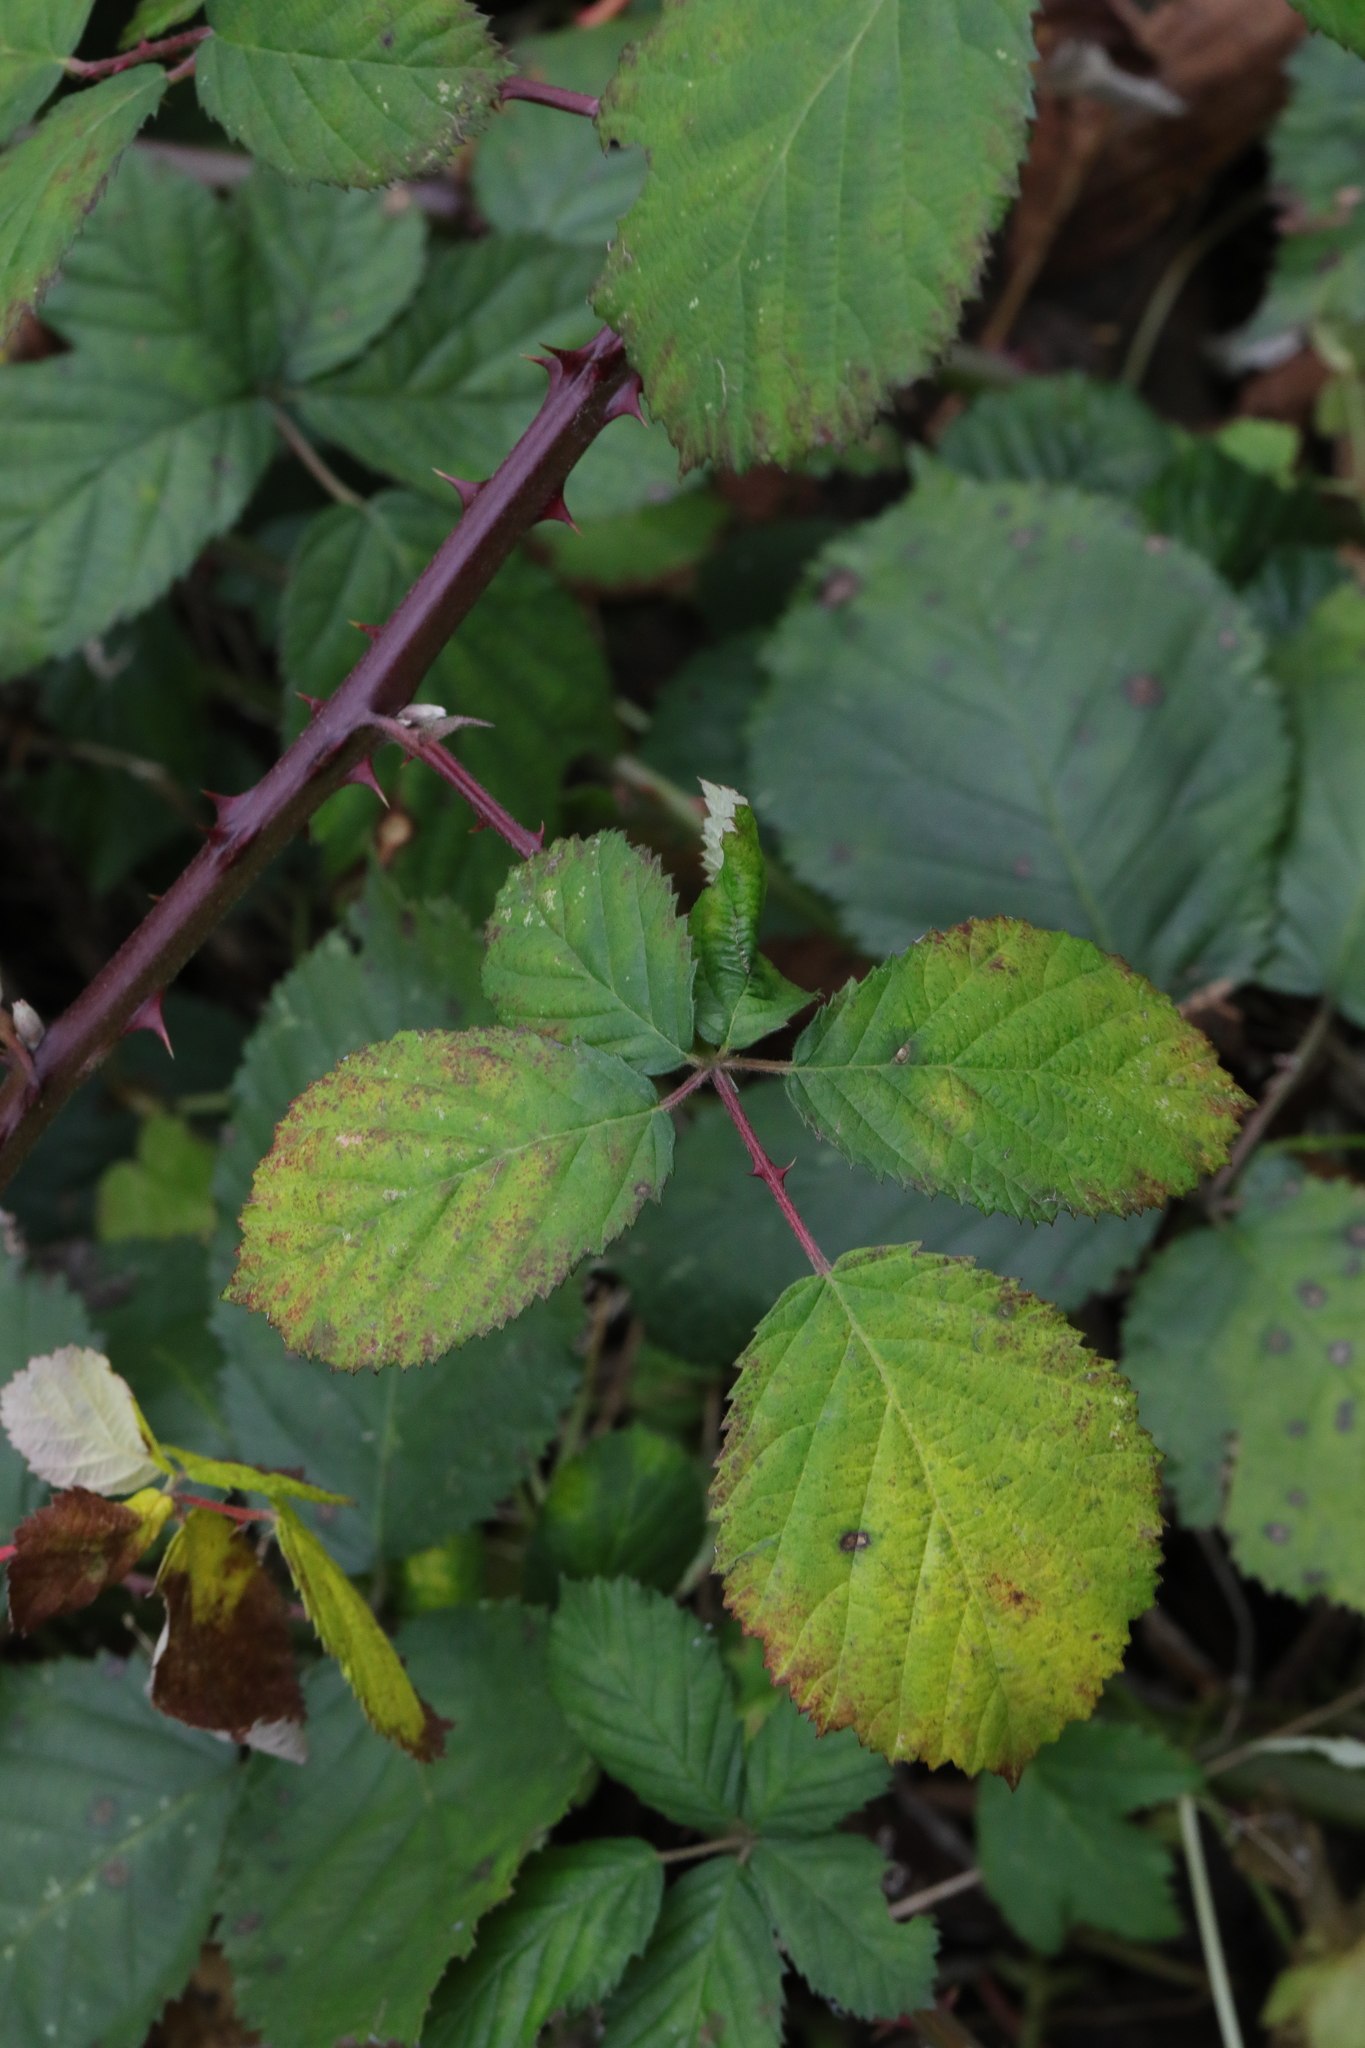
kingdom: Plantae
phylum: Tracheophyta
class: Magnoliopsida
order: Rosales
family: Rosaceae
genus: Rubus
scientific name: Rubus armeniacus
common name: Himalayan blackberry
